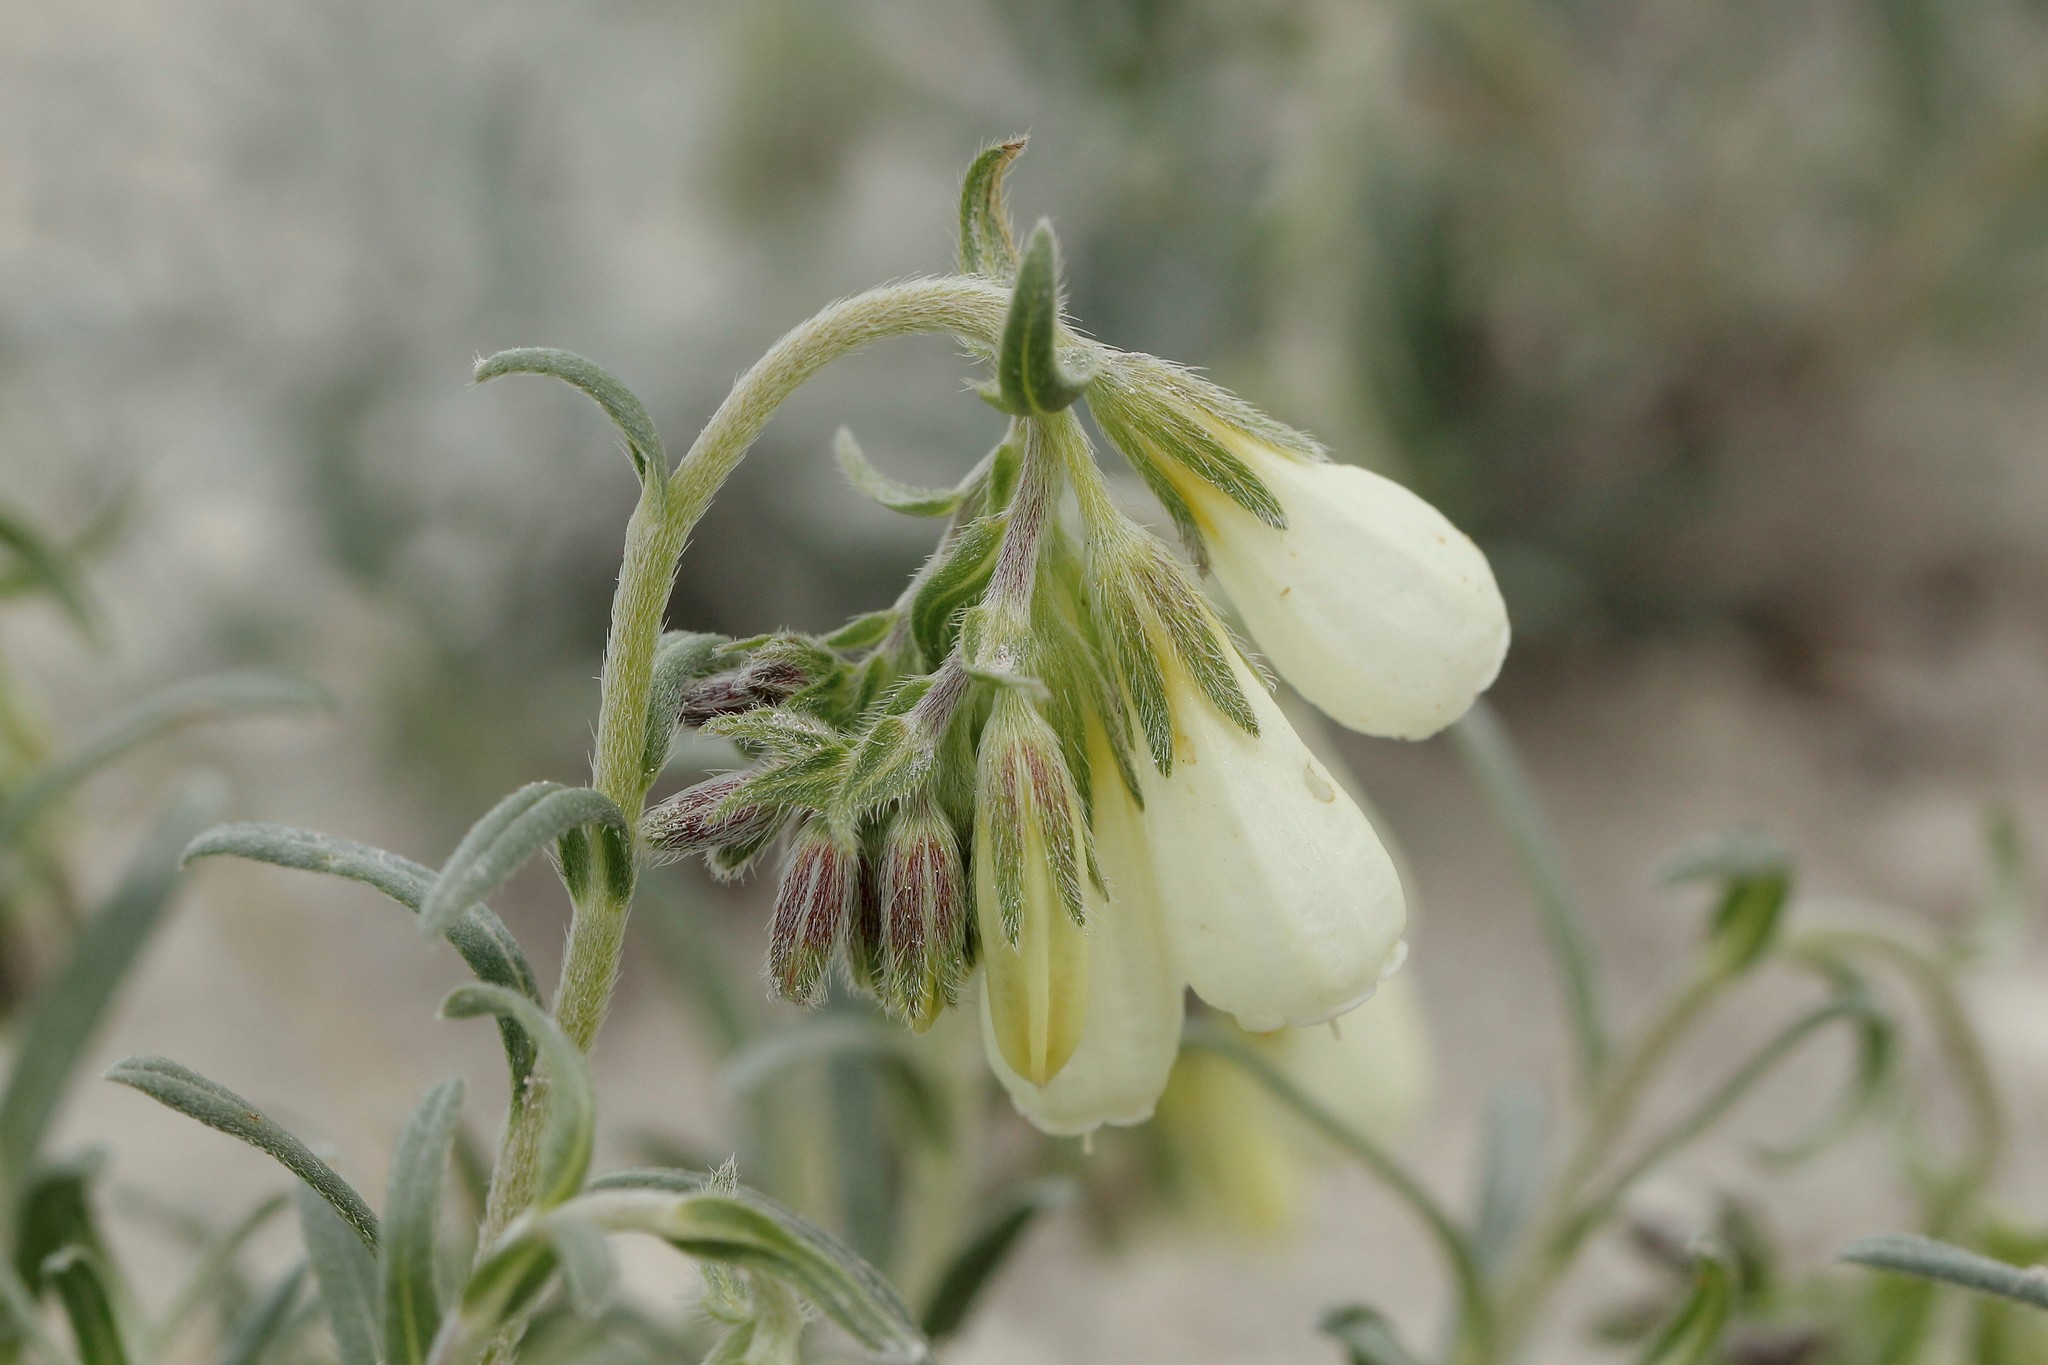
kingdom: Plantae
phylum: Tracheophyta
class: Magnoliopsida
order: Boraginales
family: Boraginaceae
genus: Onosma
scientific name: Onosma simplicissima
